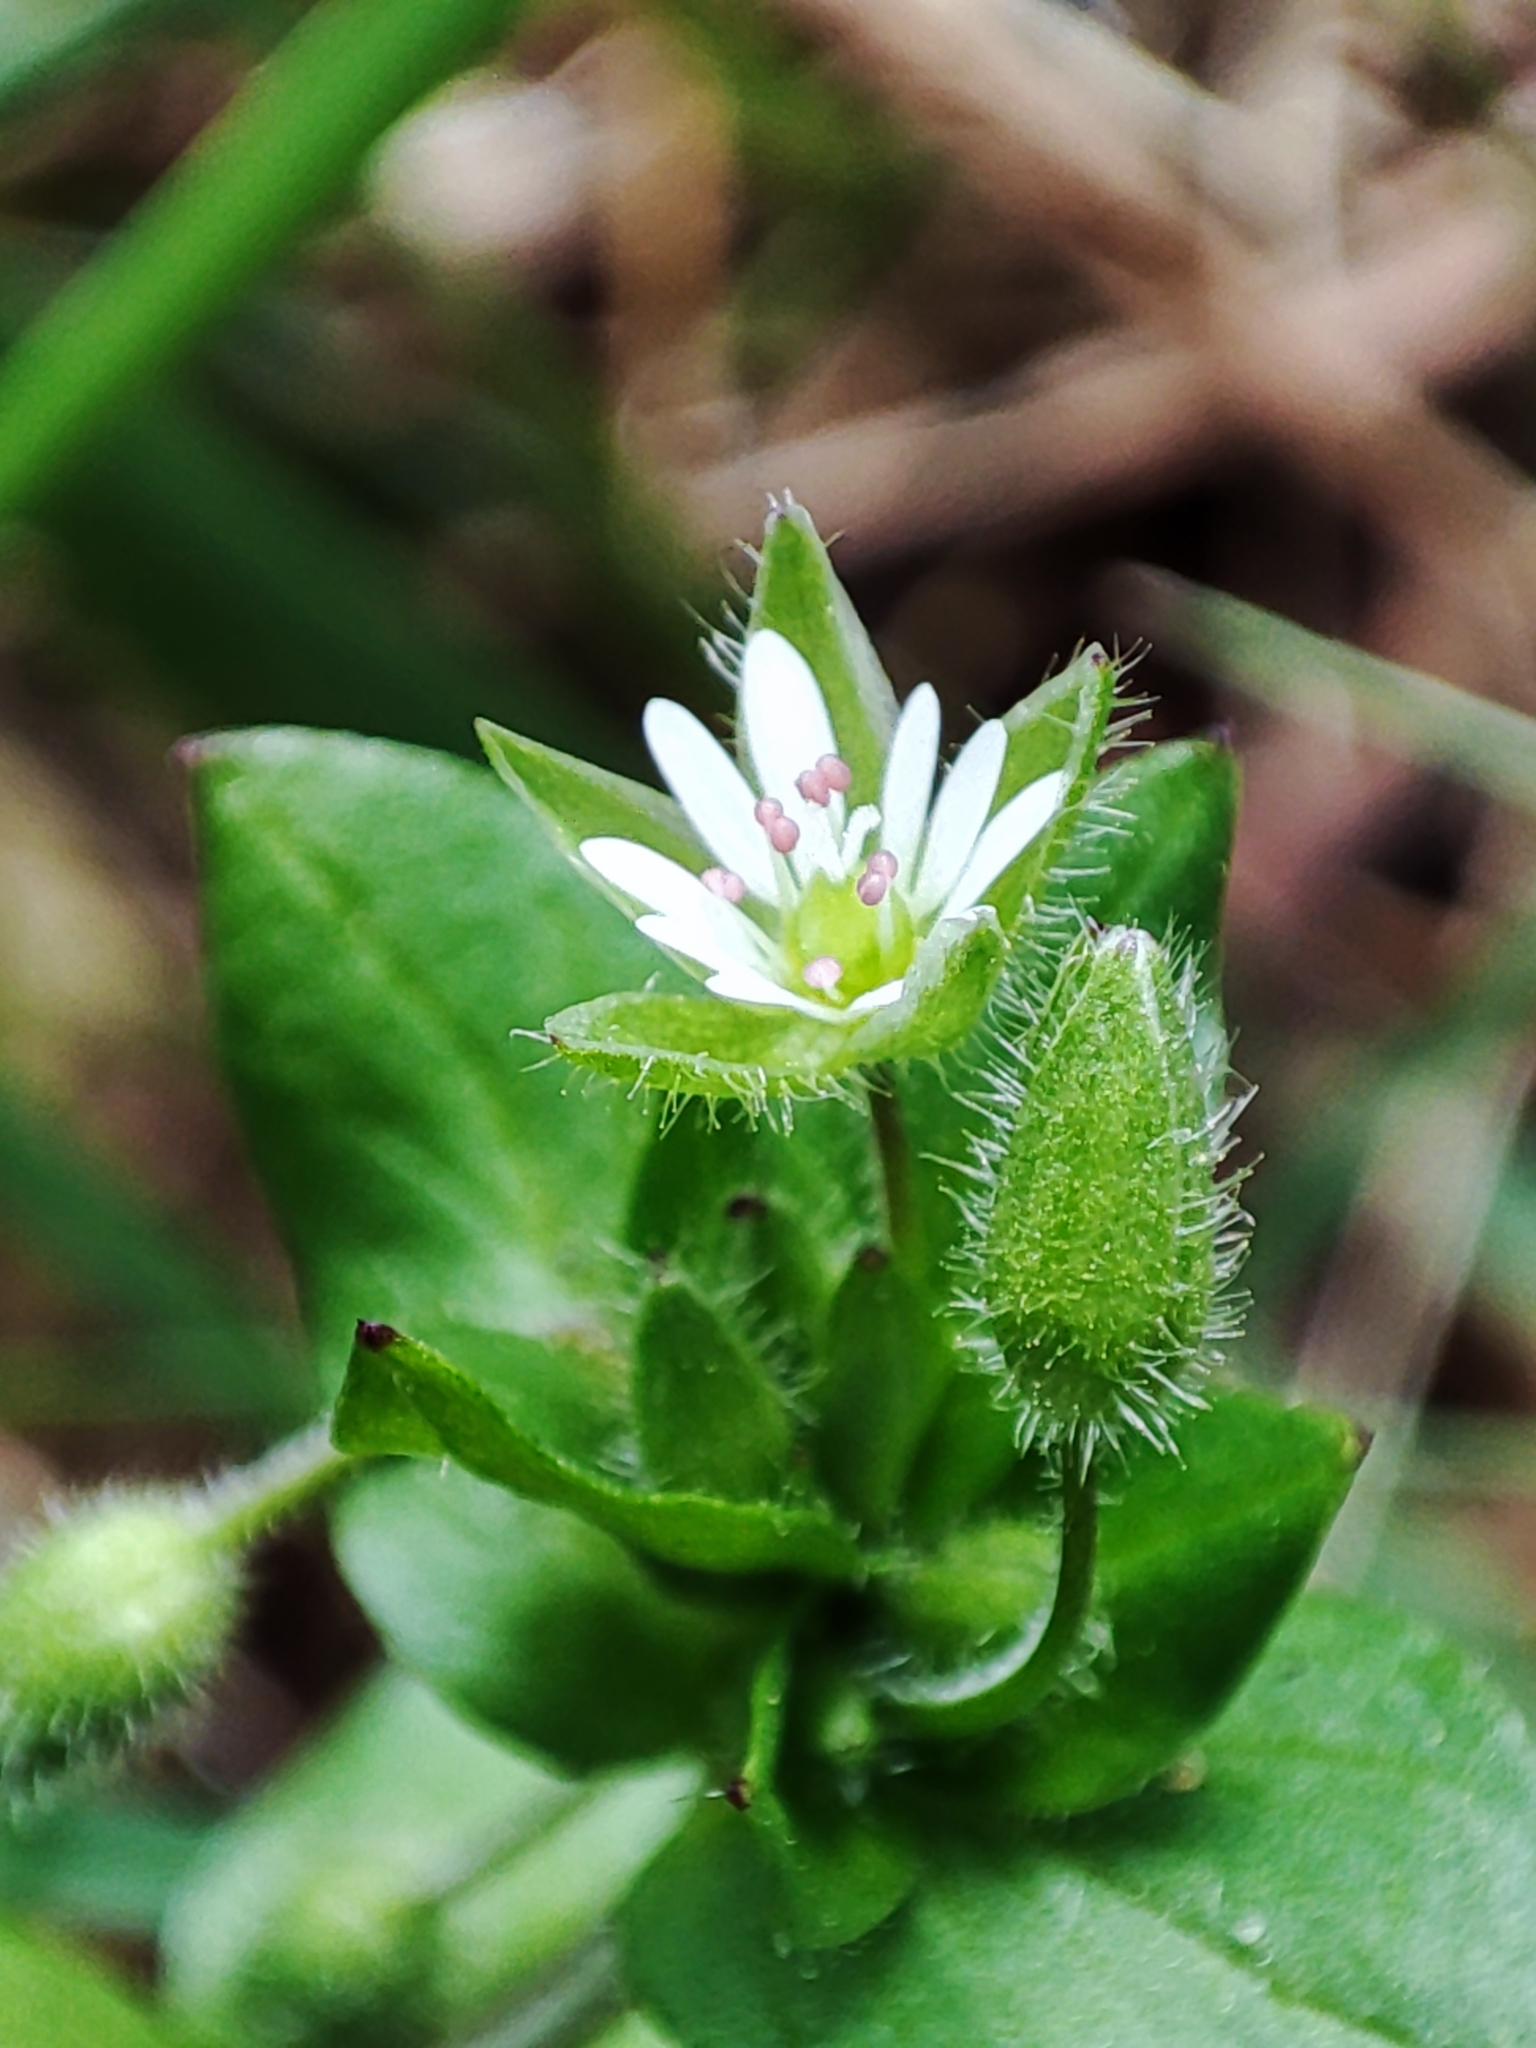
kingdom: Plantae
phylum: Tracheophyta
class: Magnoliopsida
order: Caryophyllales
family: Caryophyllaceae
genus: Stellaria
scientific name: Stellaria media
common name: Common chickweed
